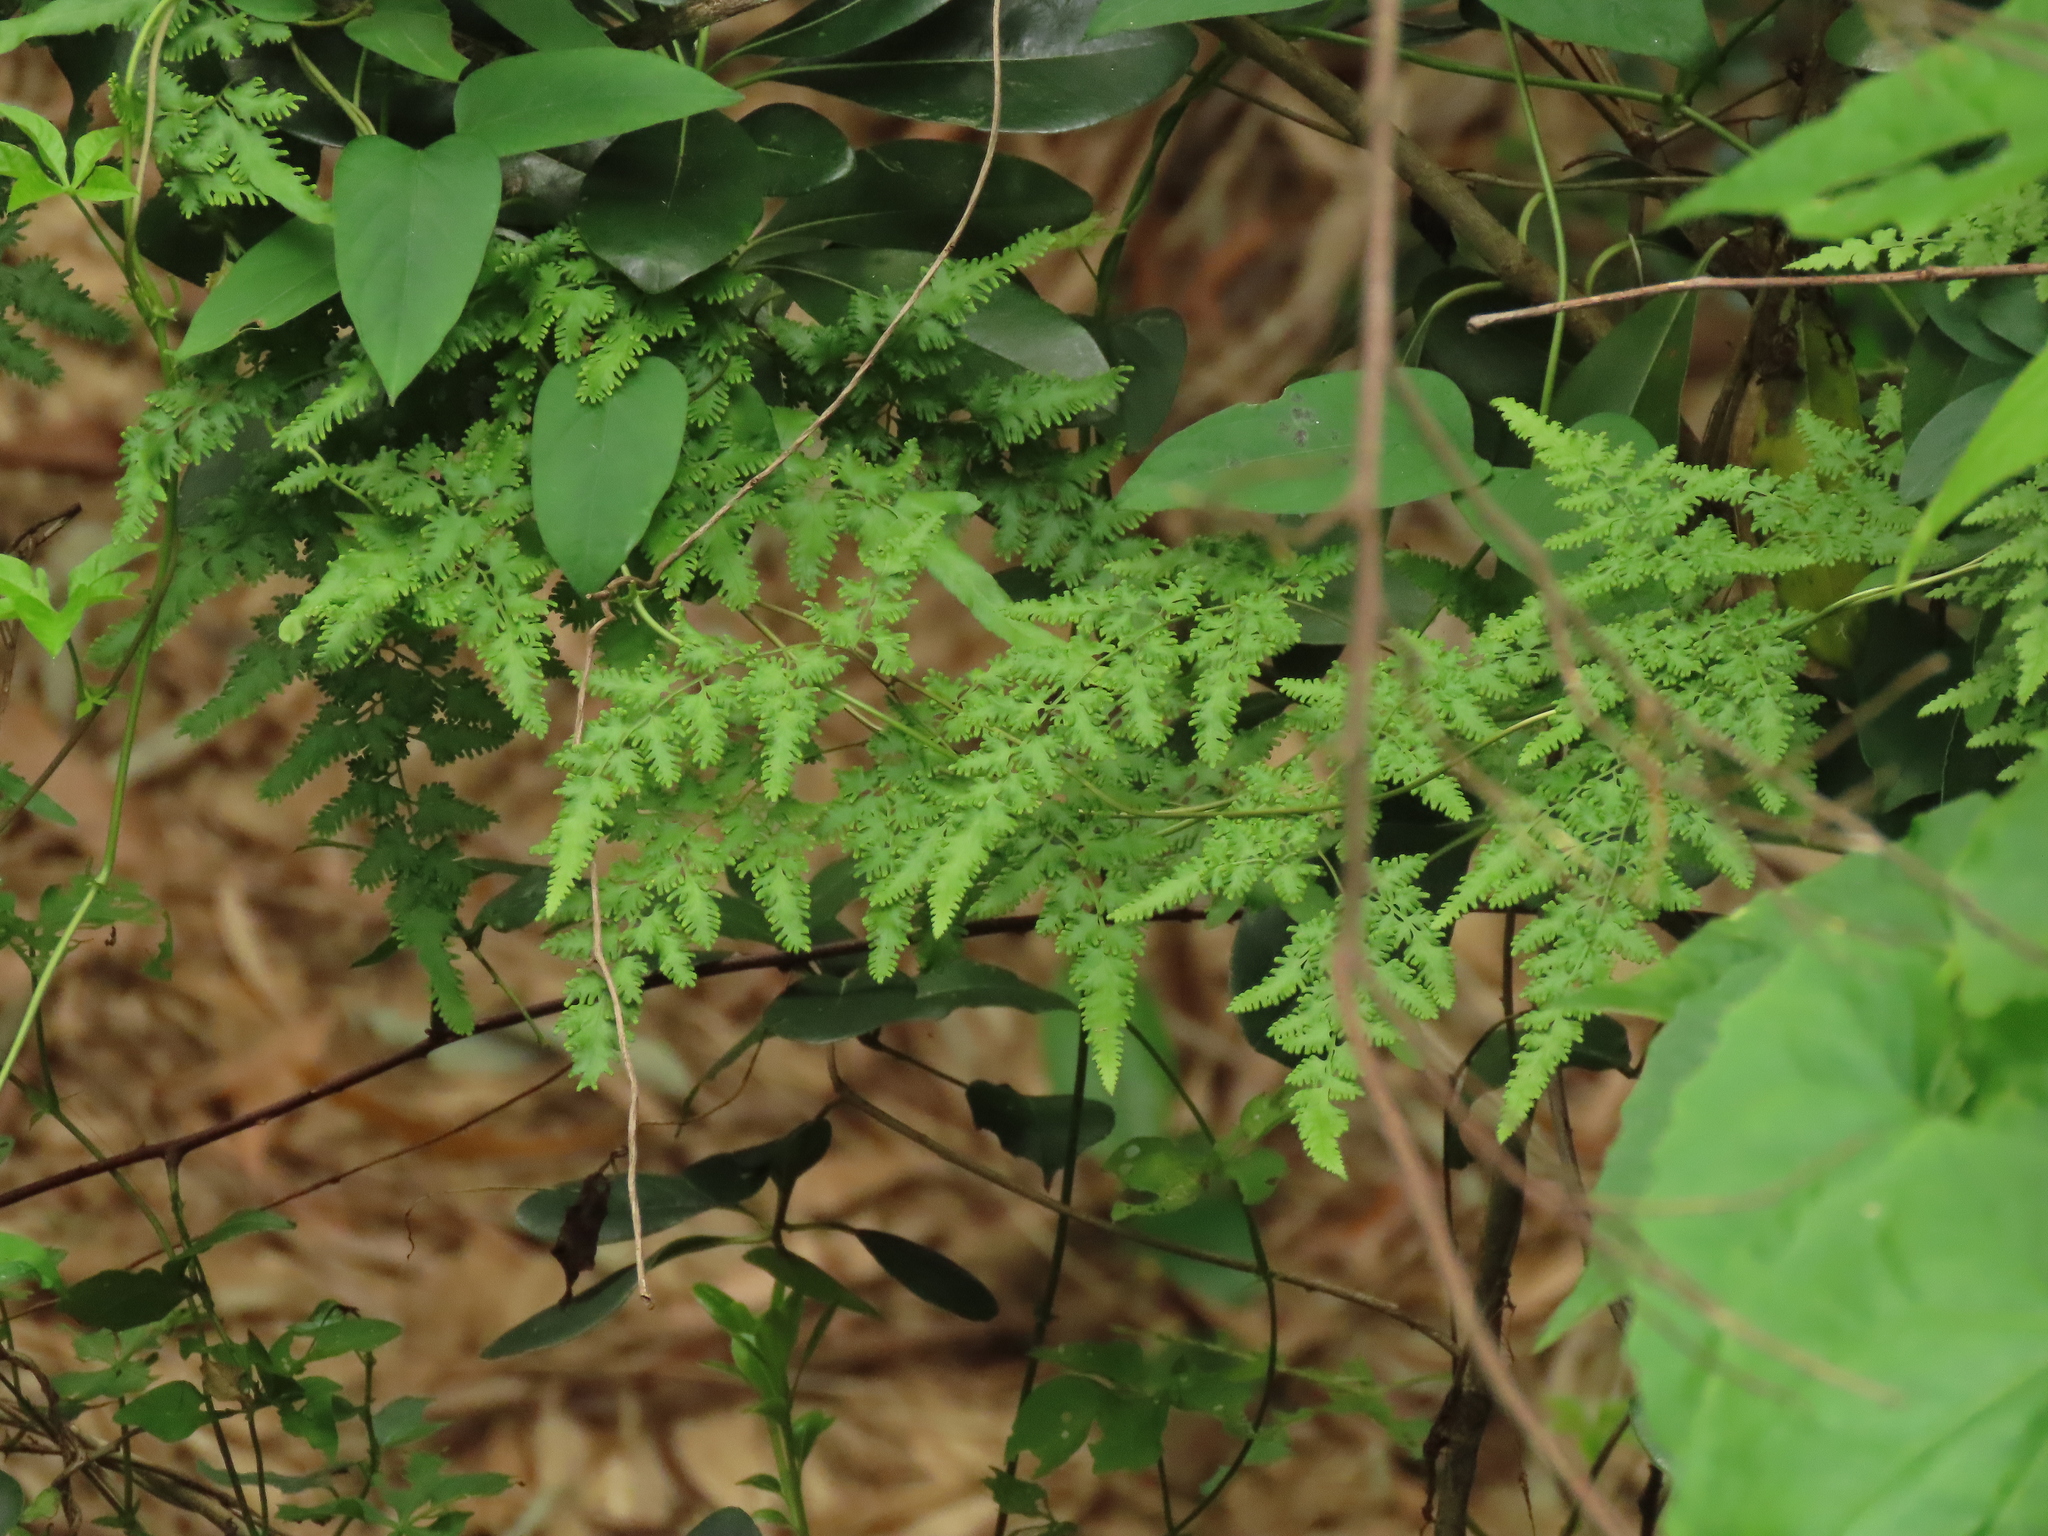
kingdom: Plantae
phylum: Tracheophyta
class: Polypodiopsida
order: Schizaeales
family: Lygodiaceae
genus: Lygodium
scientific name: Lygodium japonicum
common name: Japanese climbing fern
